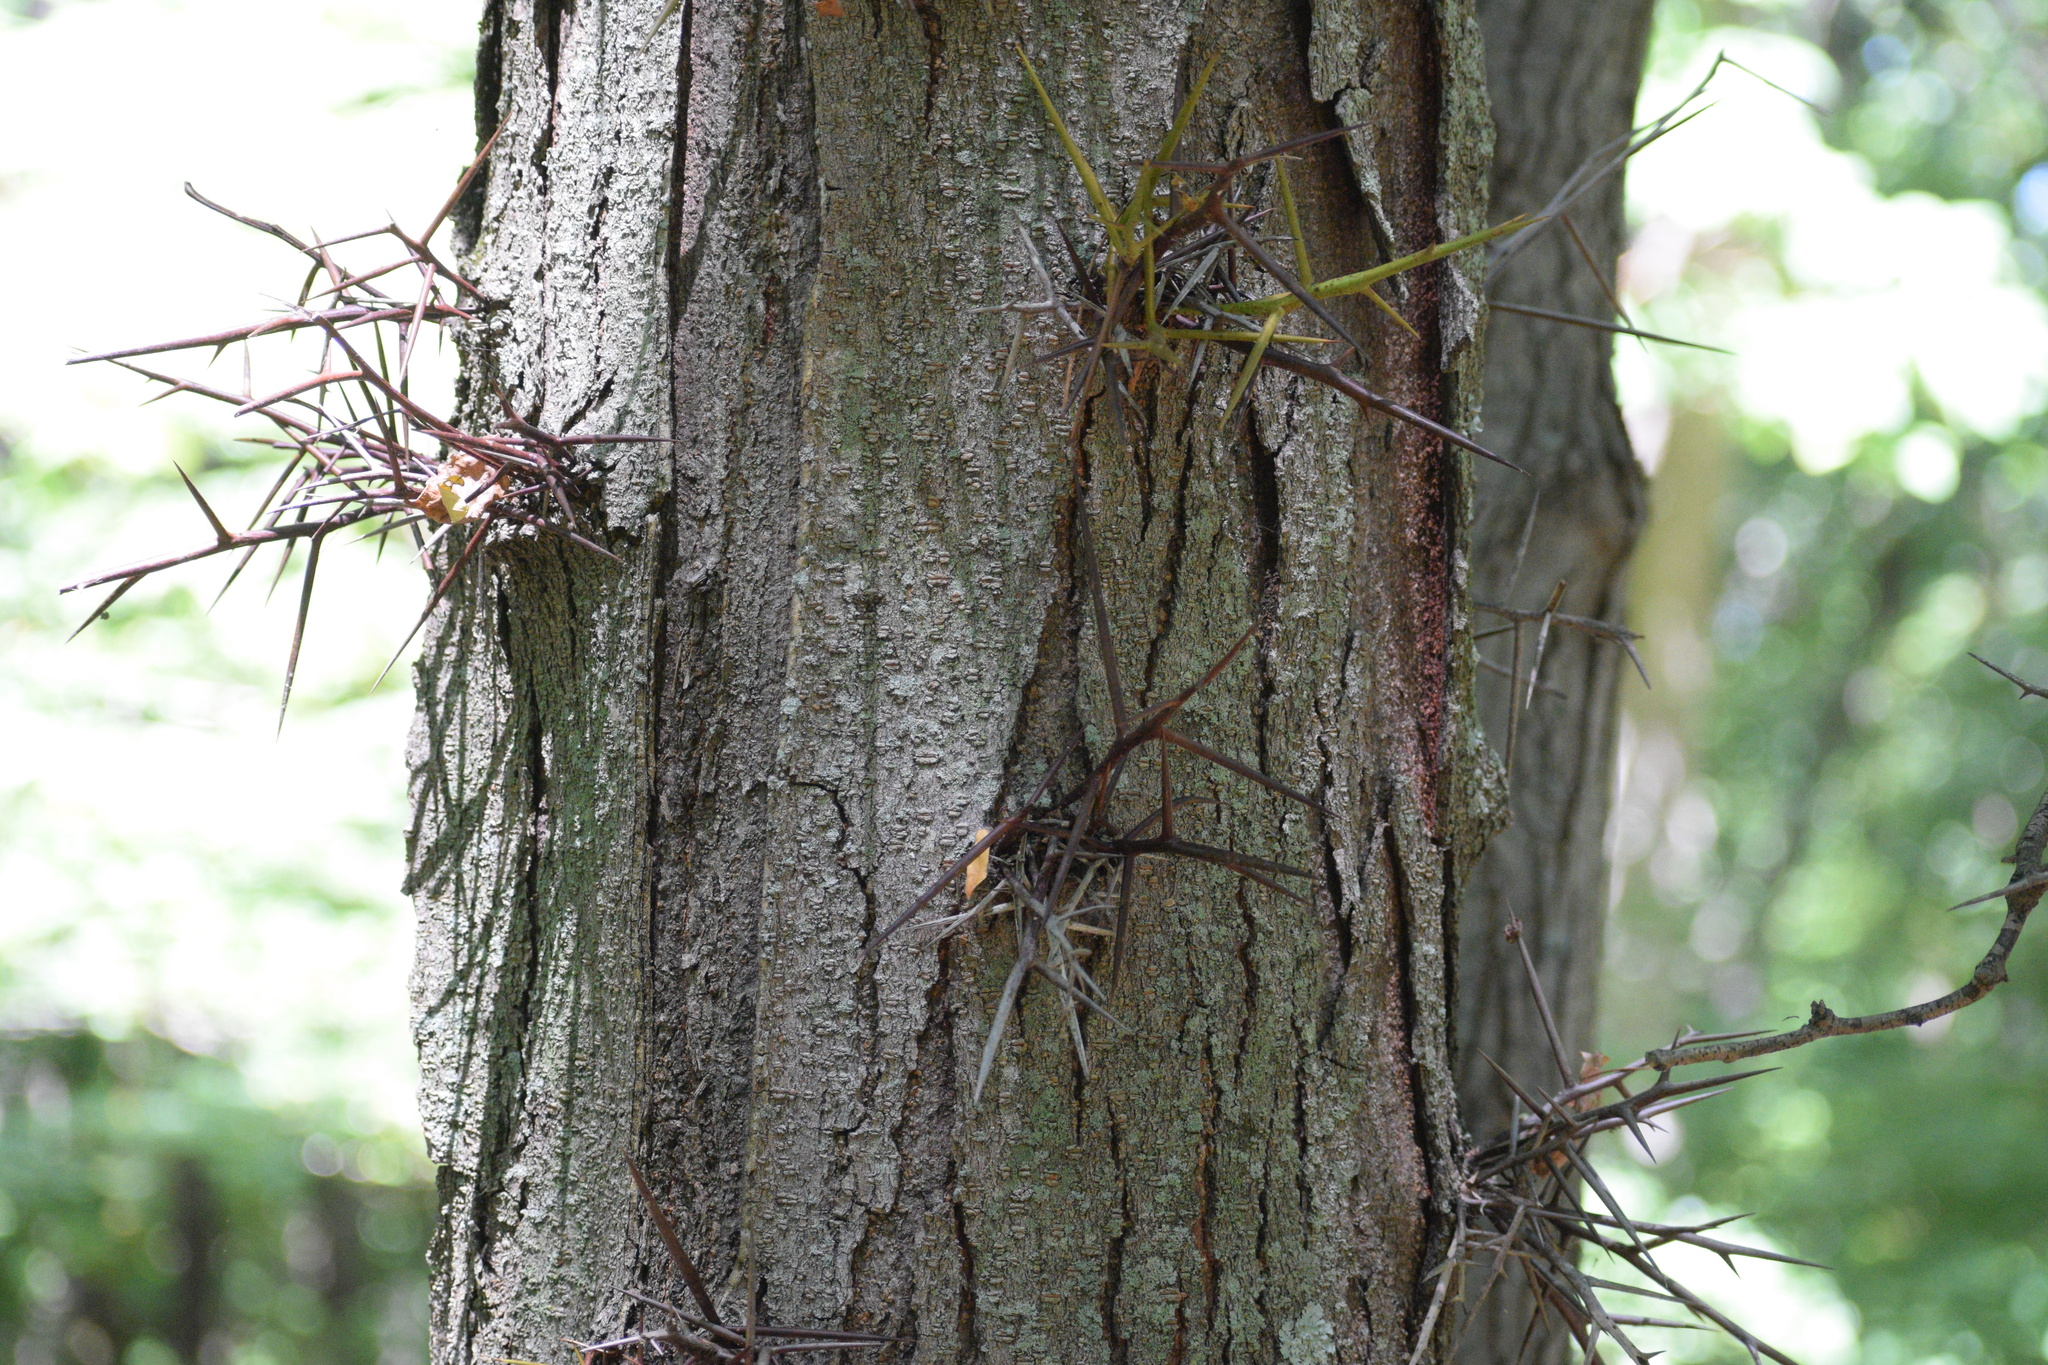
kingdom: Plantae
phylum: Tracheophyta
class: Magnoliopsida
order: Fabales
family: Fabaceae
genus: Gleditsia
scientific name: Gleditsia triacanthos
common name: Common honeylocust
